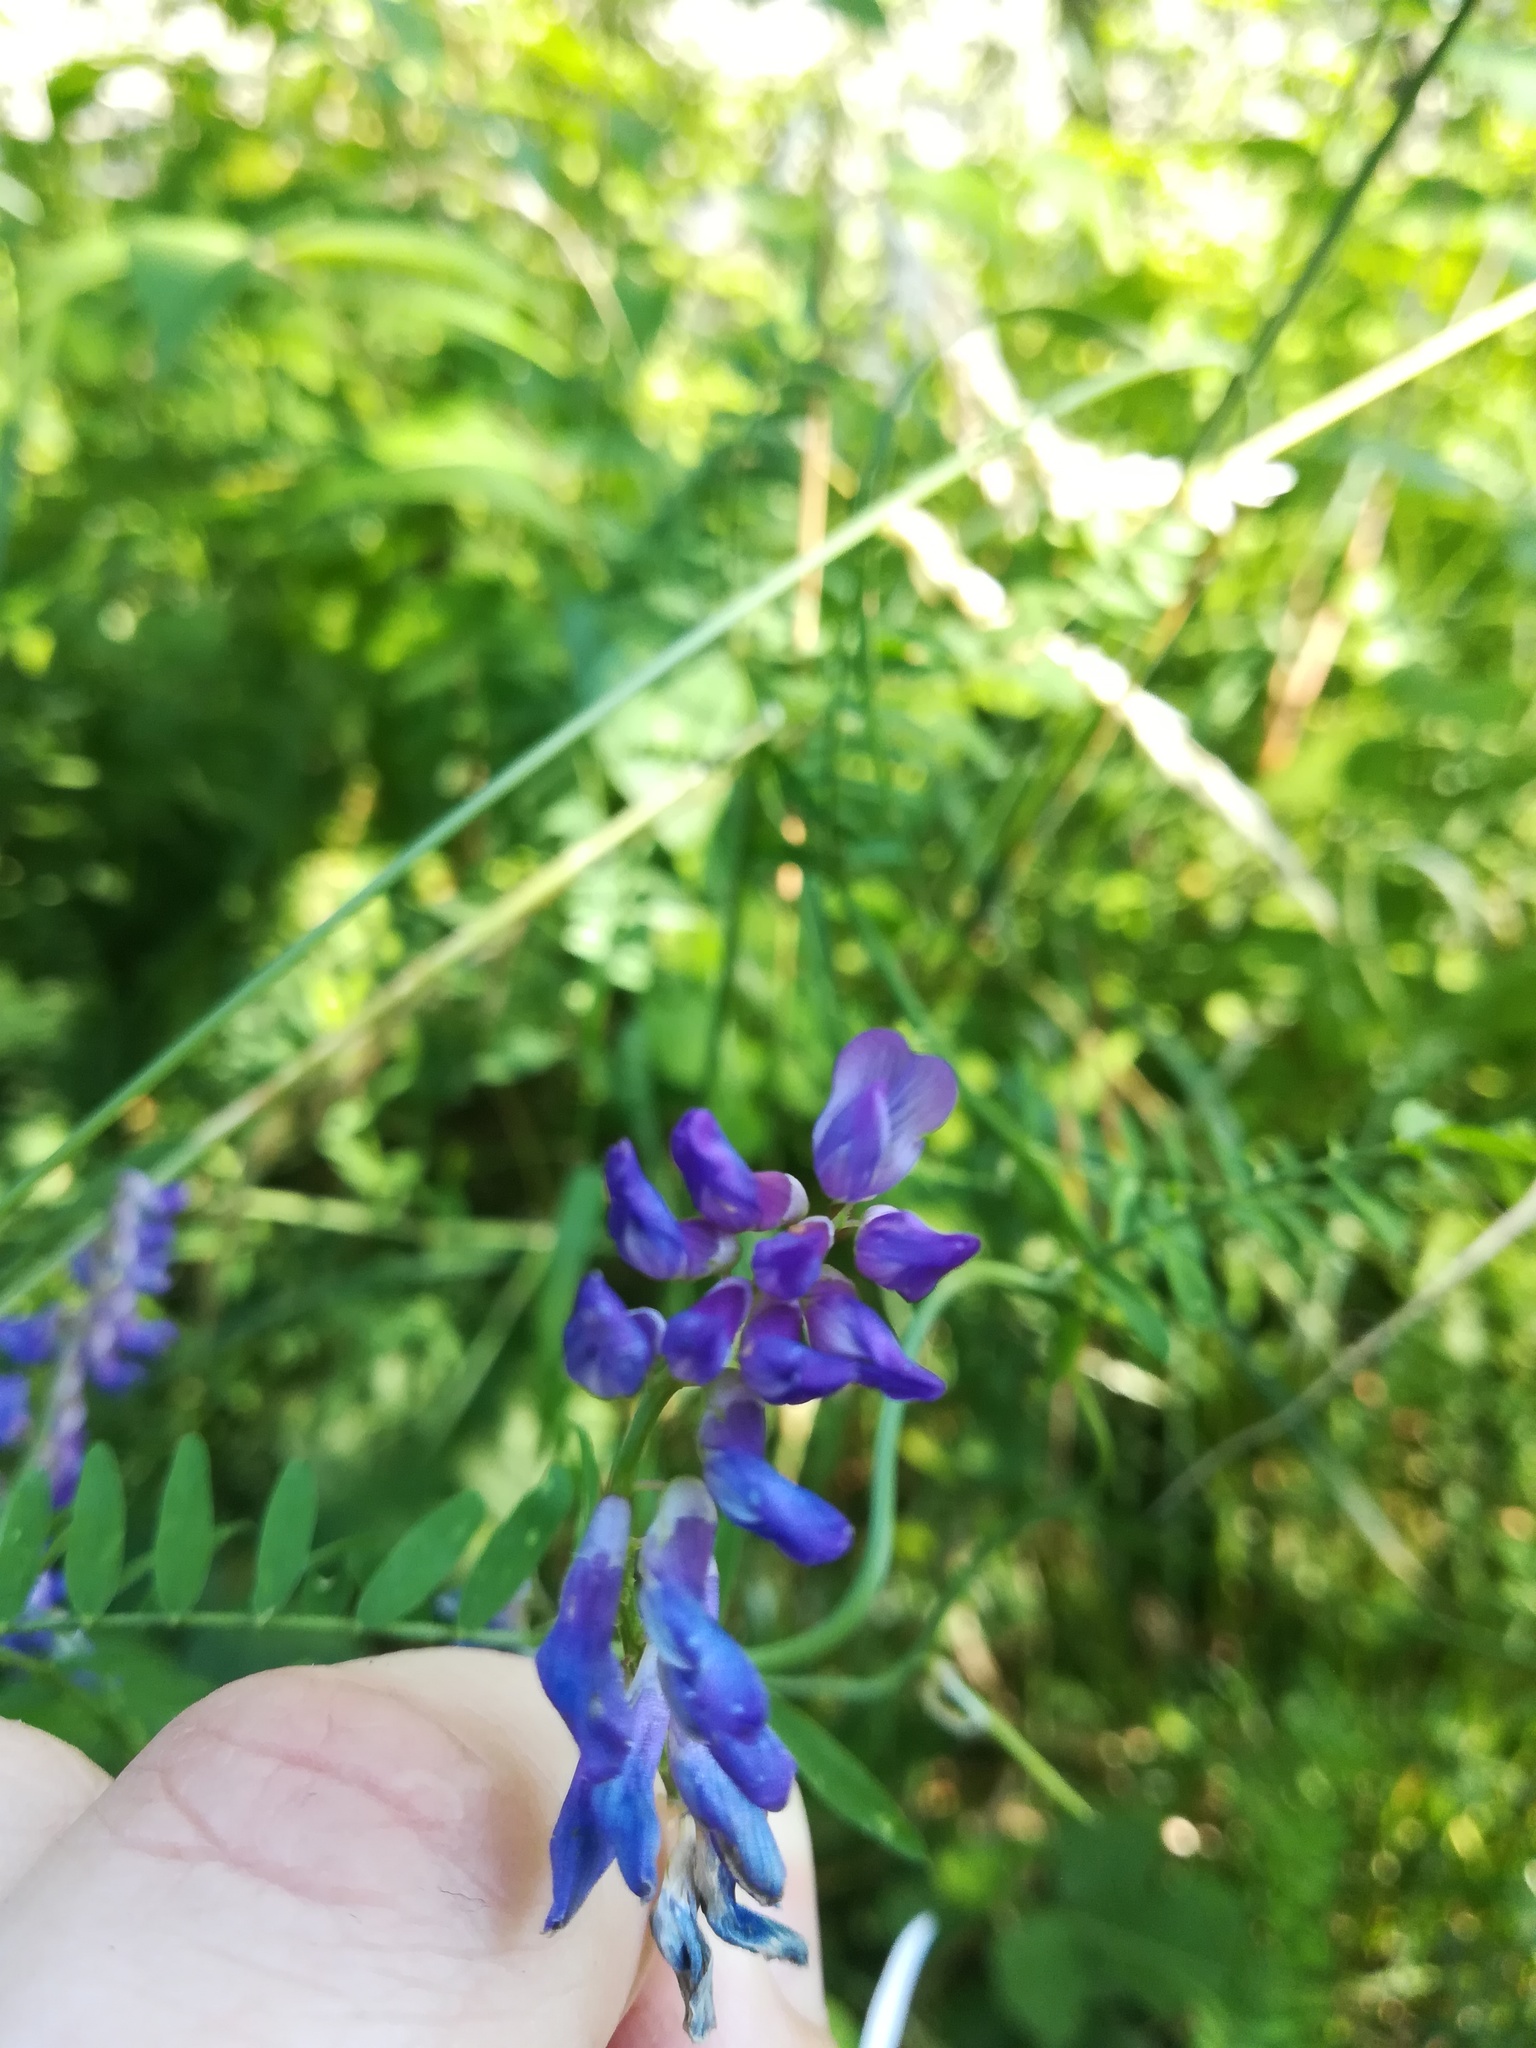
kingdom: Plantae
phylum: Tracheophyta
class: Magnoliopsida
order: Fabales
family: Fabaceae
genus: Vicia
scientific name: Vicia cracca
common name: Bird vetch
